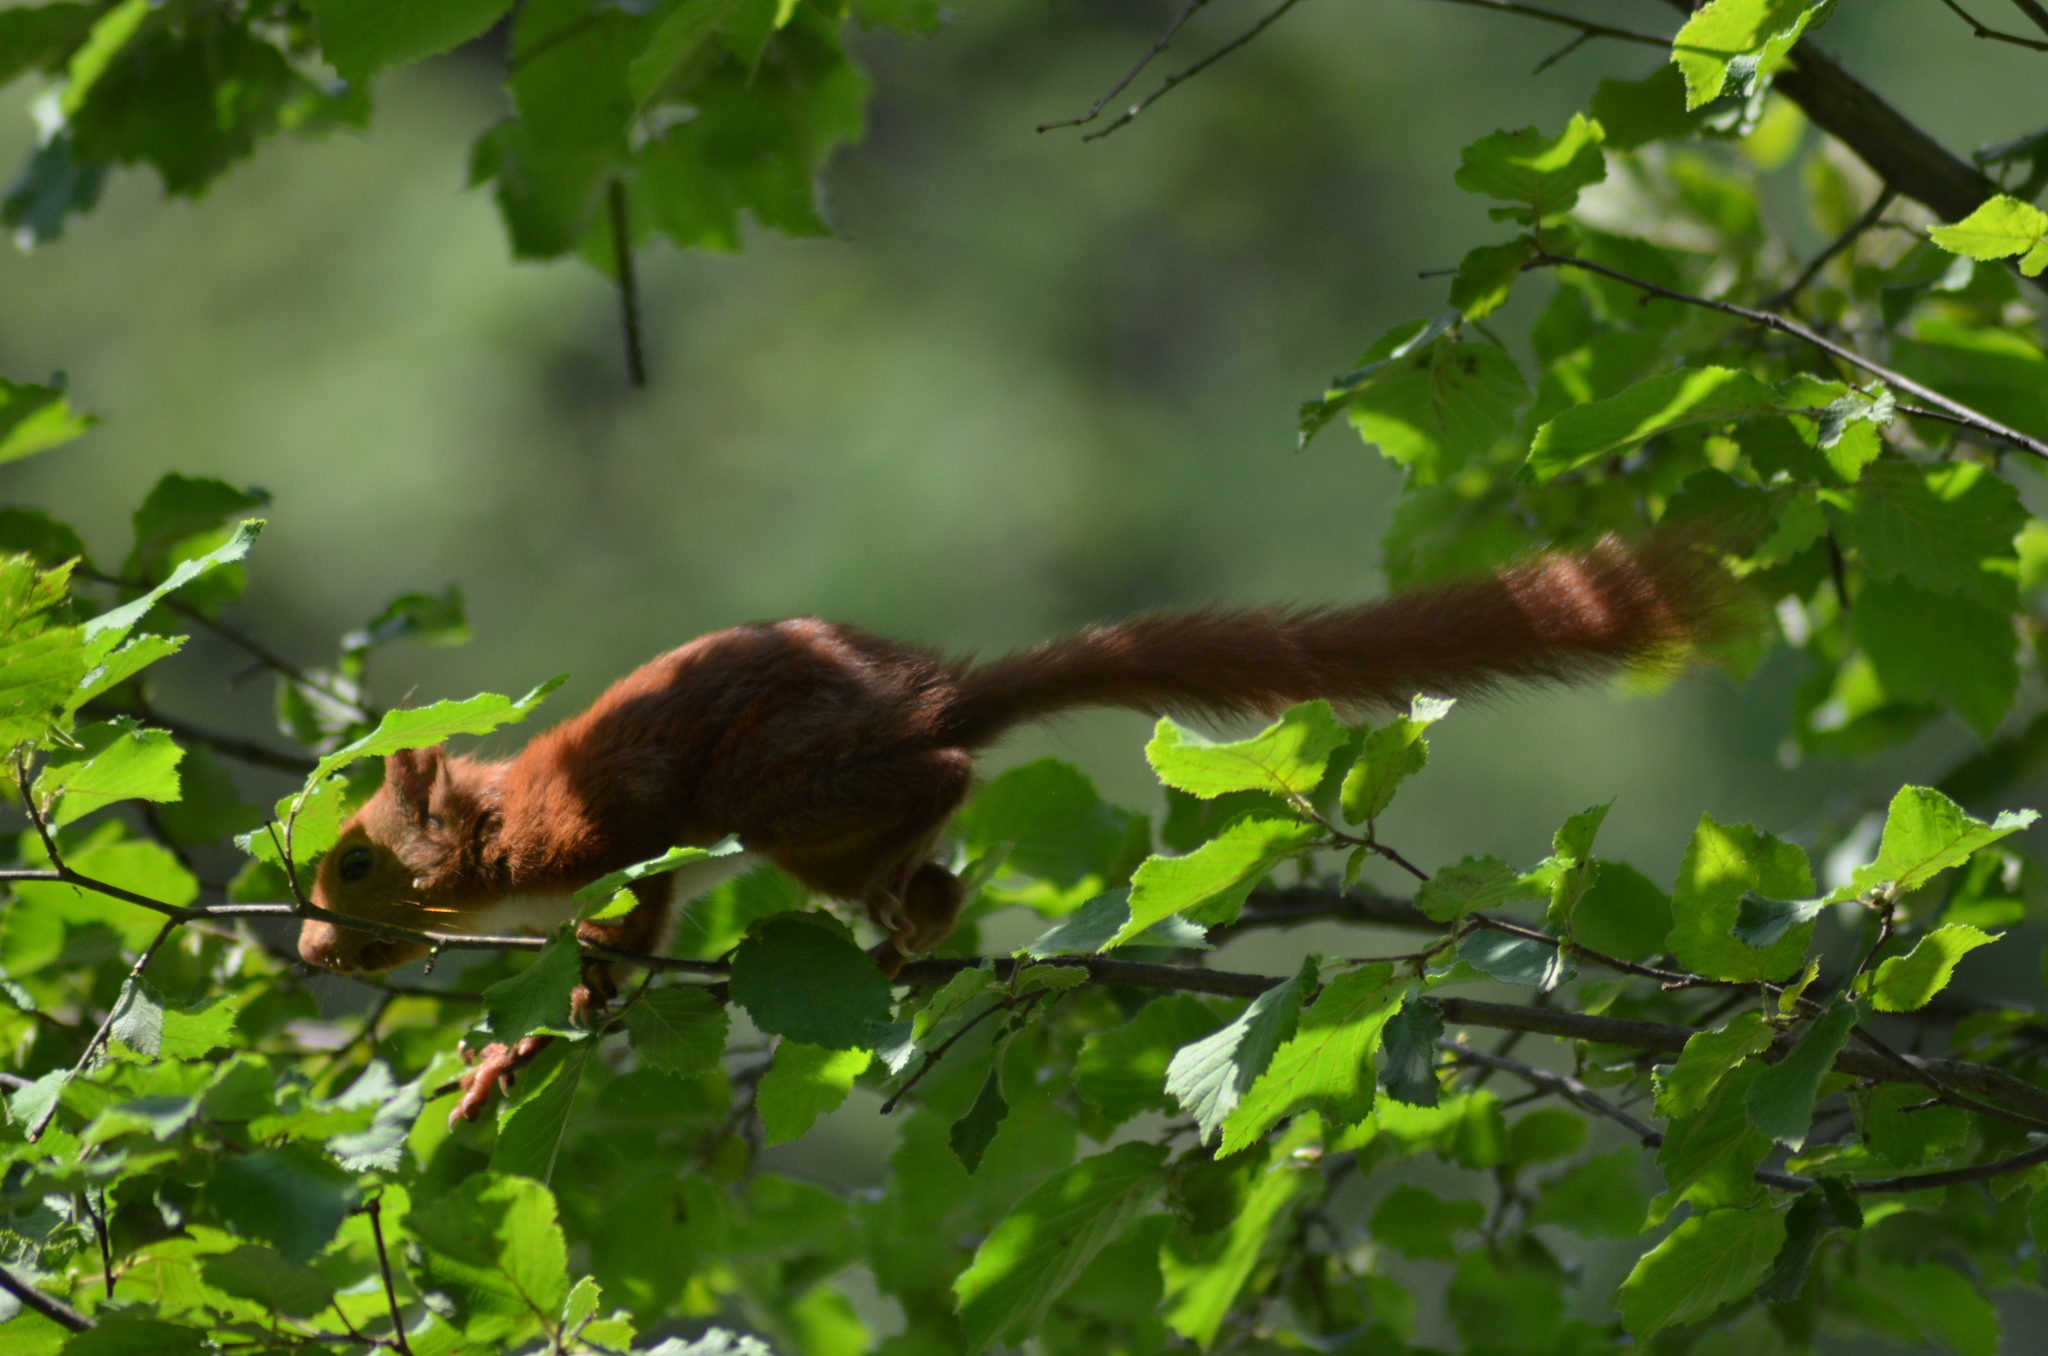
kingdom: Animalia
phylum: Chordata
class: Mammalia
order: Rodentia
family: Sciuridae
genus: Sciurus
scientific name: Sciurus vulgaris
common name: Eurasian red squirrel
